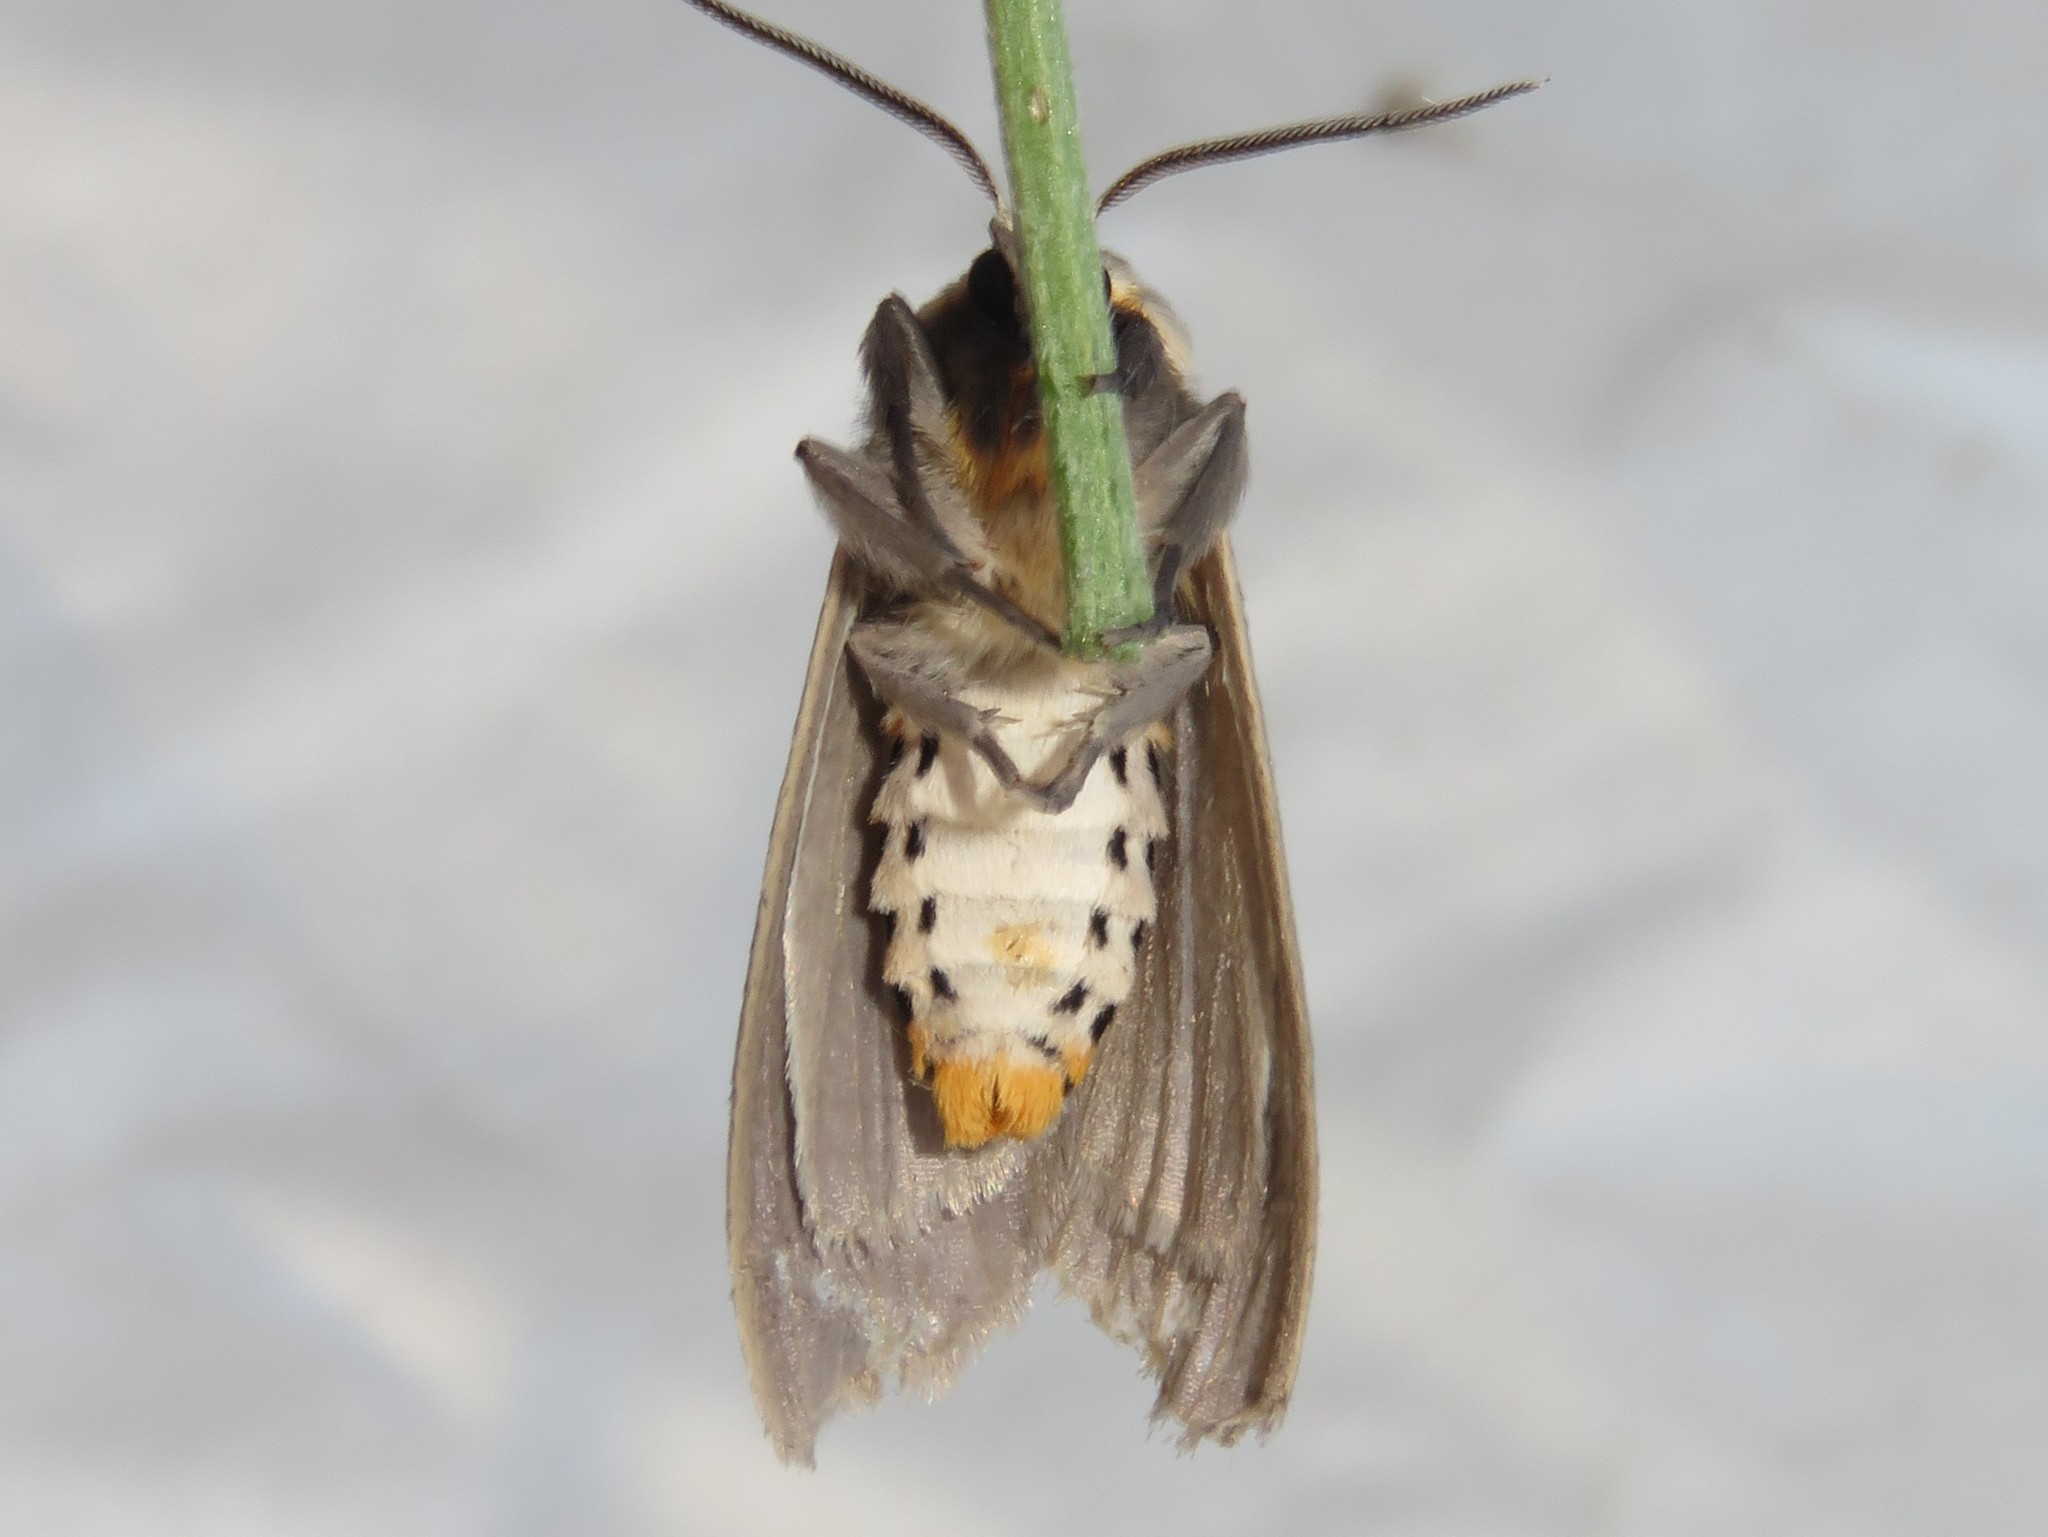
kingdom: Animalia
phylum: Arthropoda
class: Insecta
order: Lepidoptera
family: Erebidae
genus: Euchaetes
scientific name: Euchaetes egle
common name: Milkweed tussock moth
